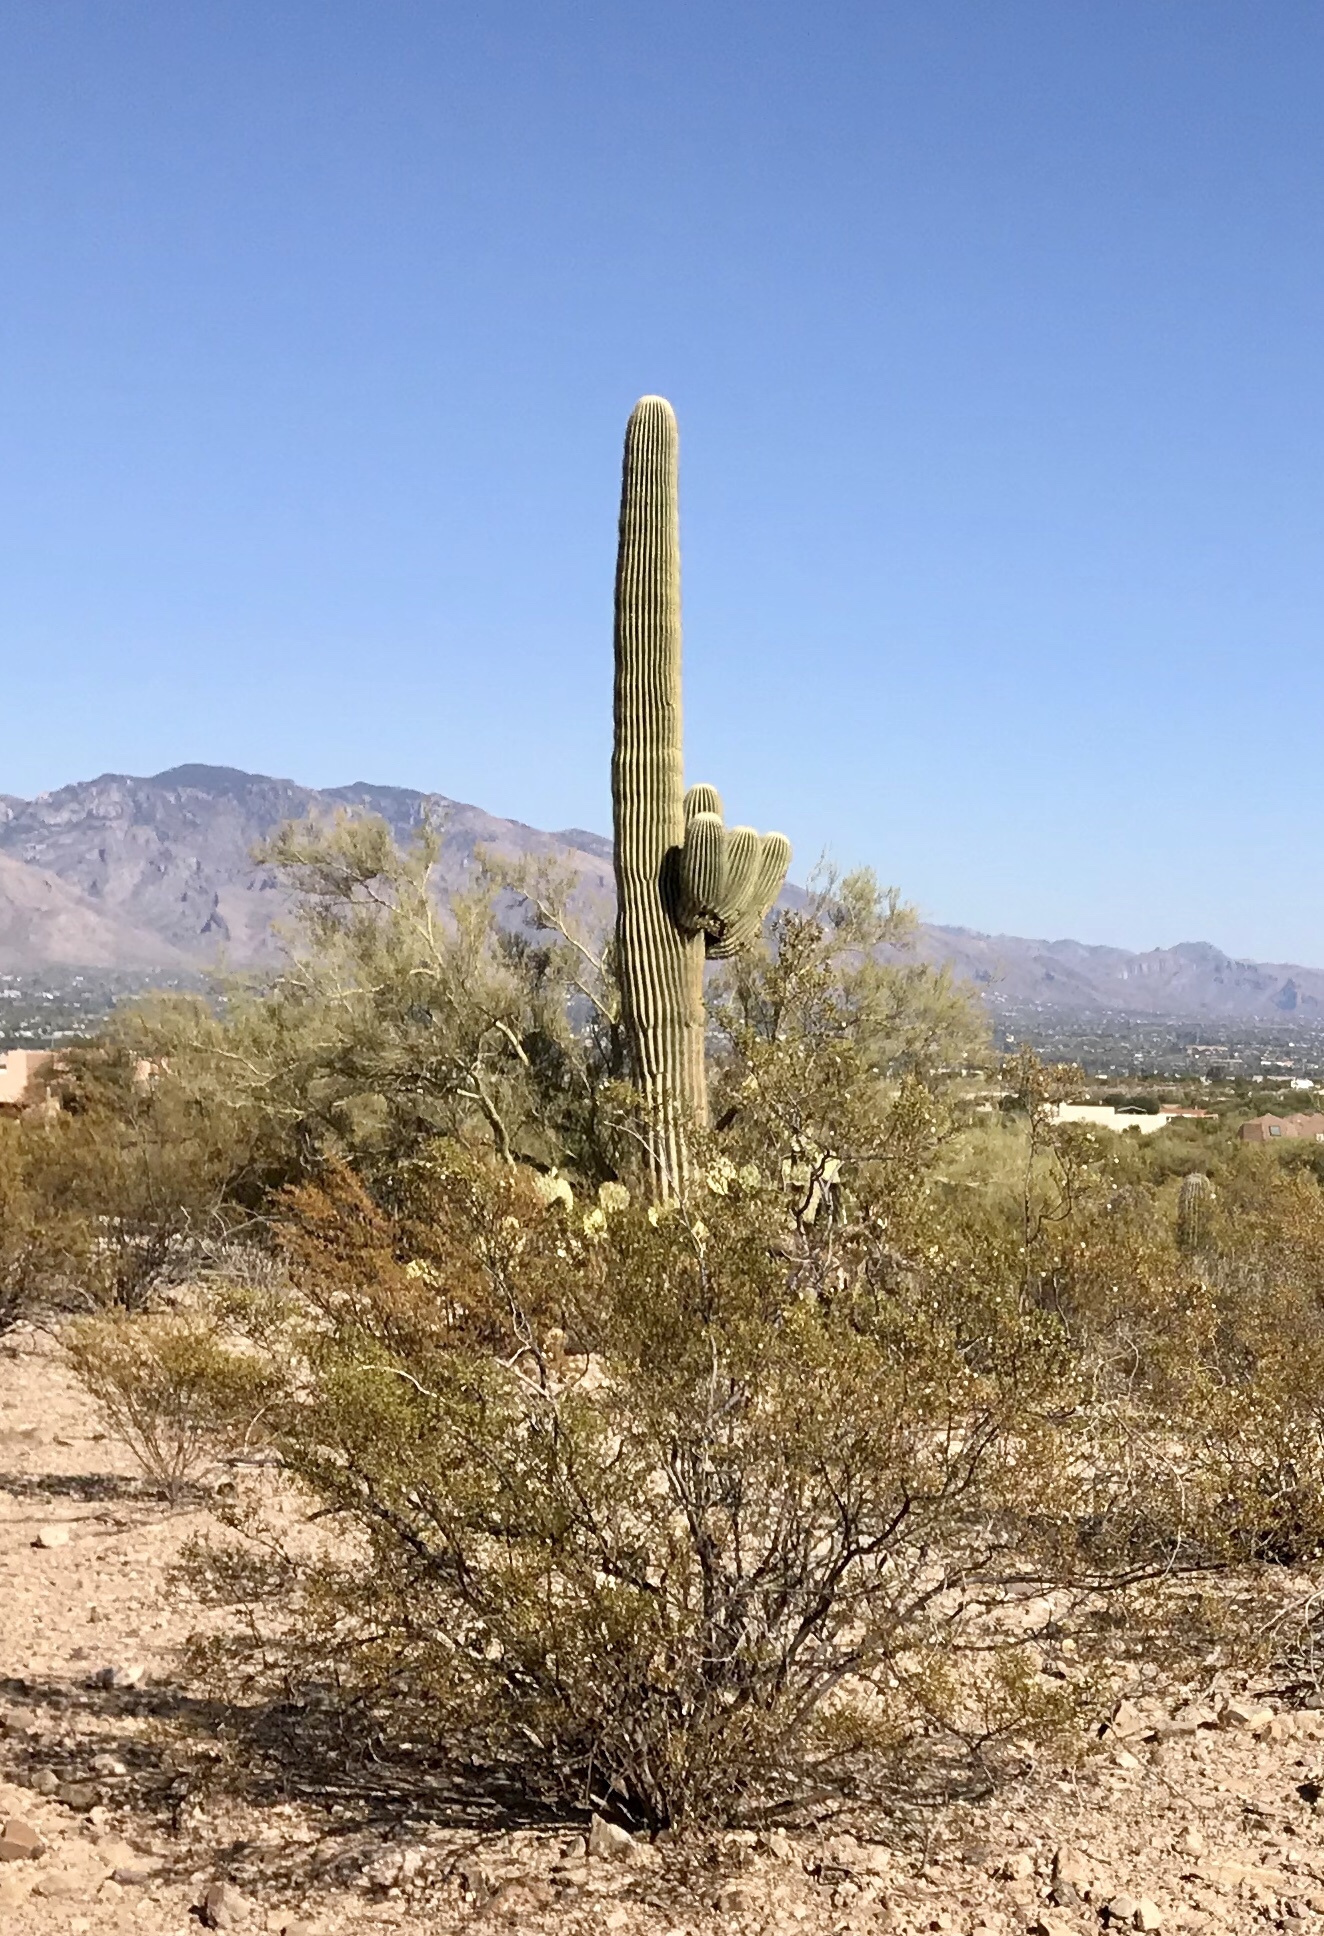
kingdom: Plantae
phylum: Tracheophyta
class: Magnoliopsida
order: Zygophyllales
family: Zygophyllaceae
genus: Larrea
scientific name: Larrea tridentata
